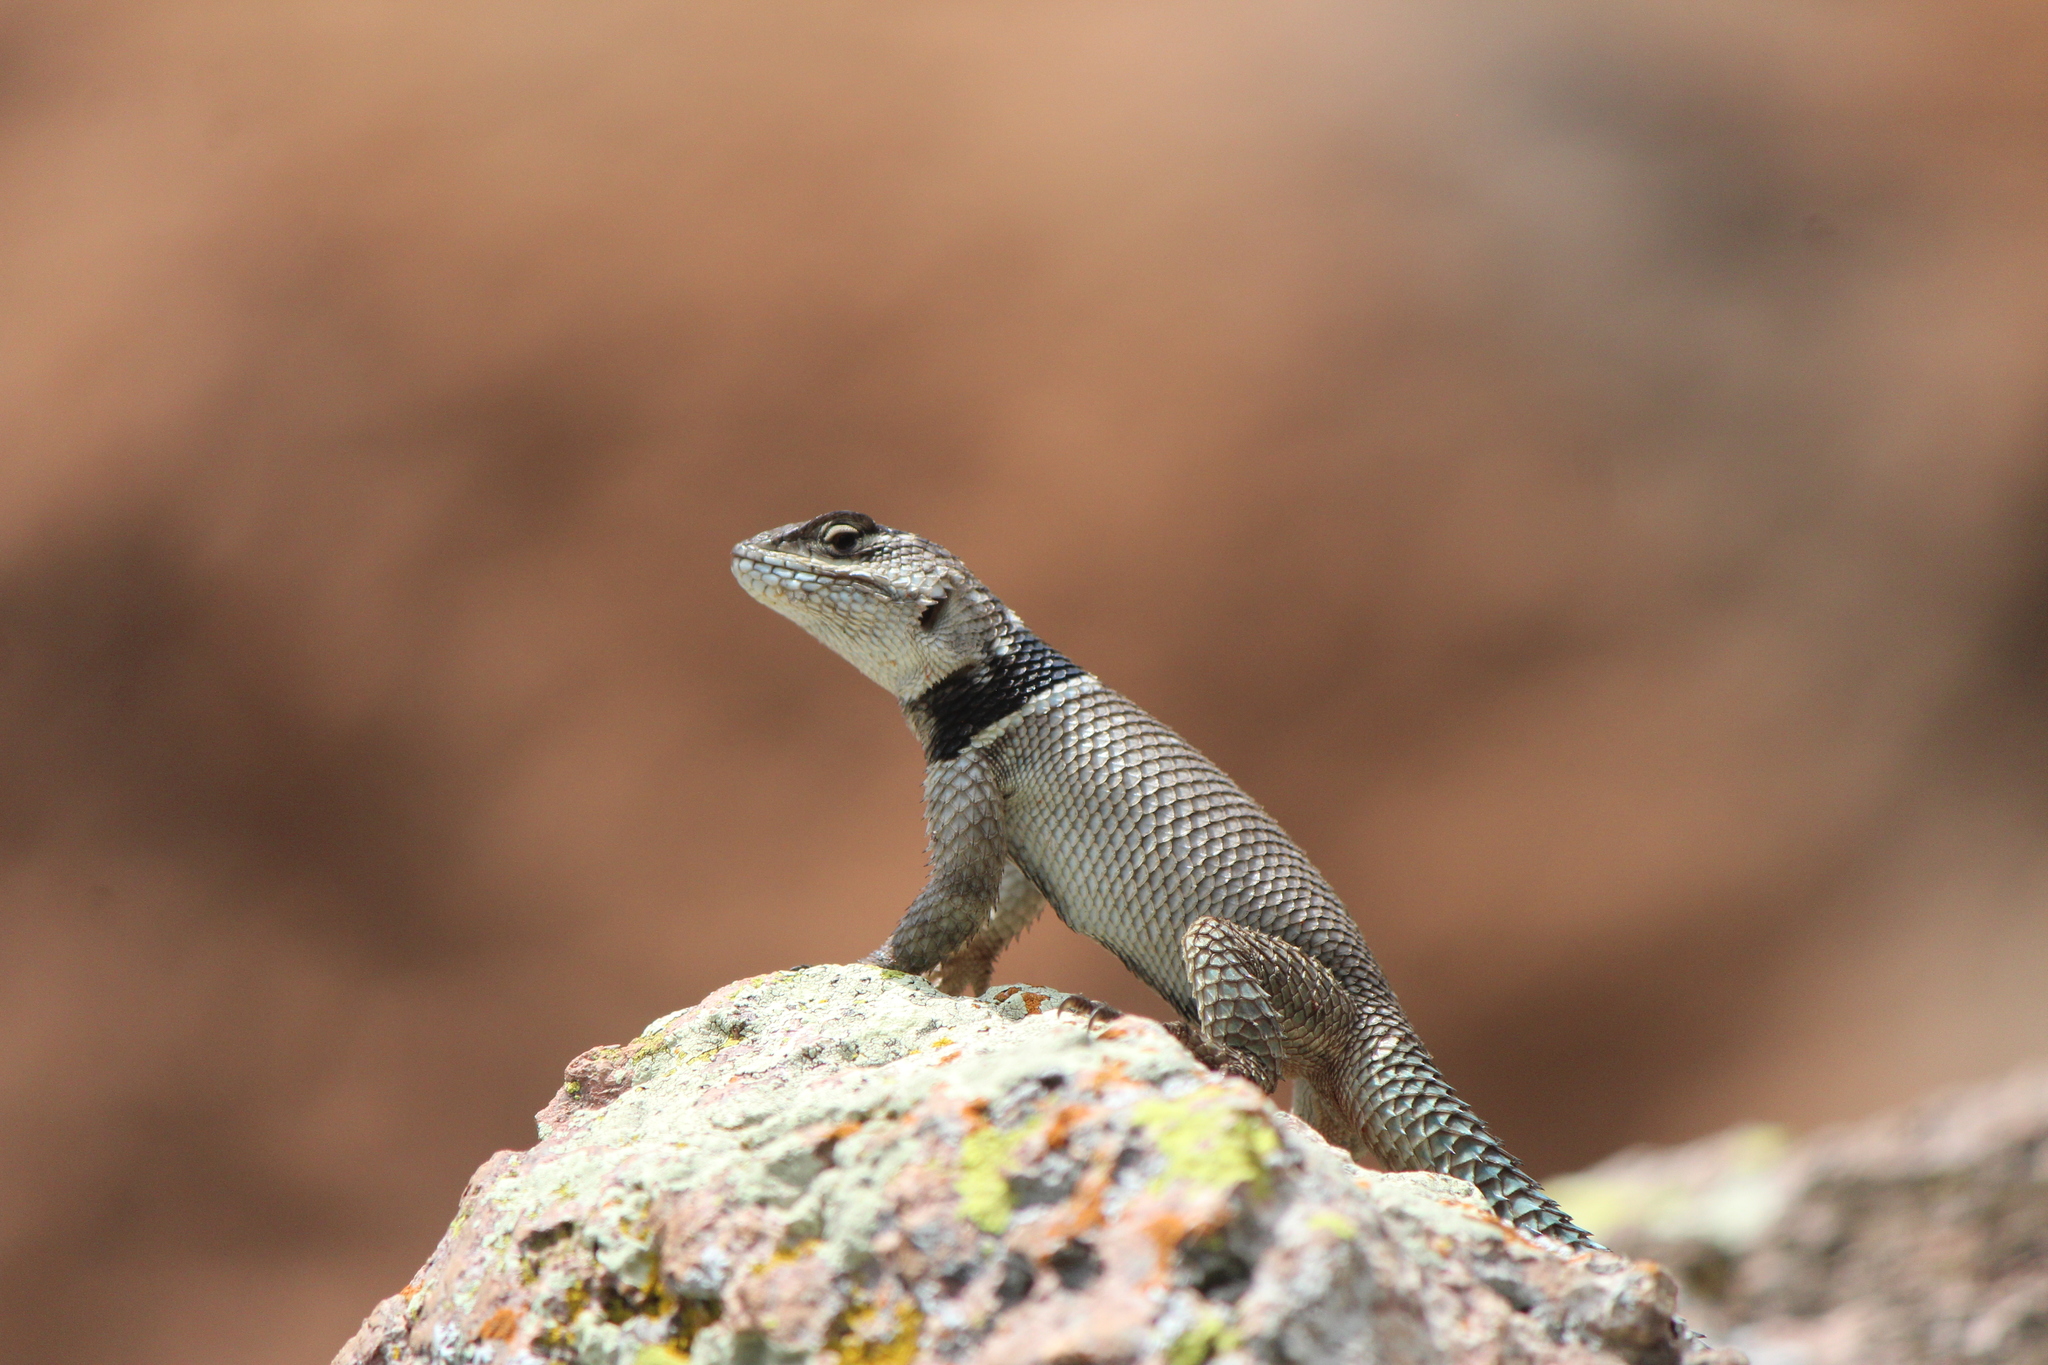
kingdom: Animalia
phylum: Chordata
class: Squamata
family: Phrynosomatidae
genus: Sceloporus
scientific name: Sceloporus minor
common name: Minor lizard
